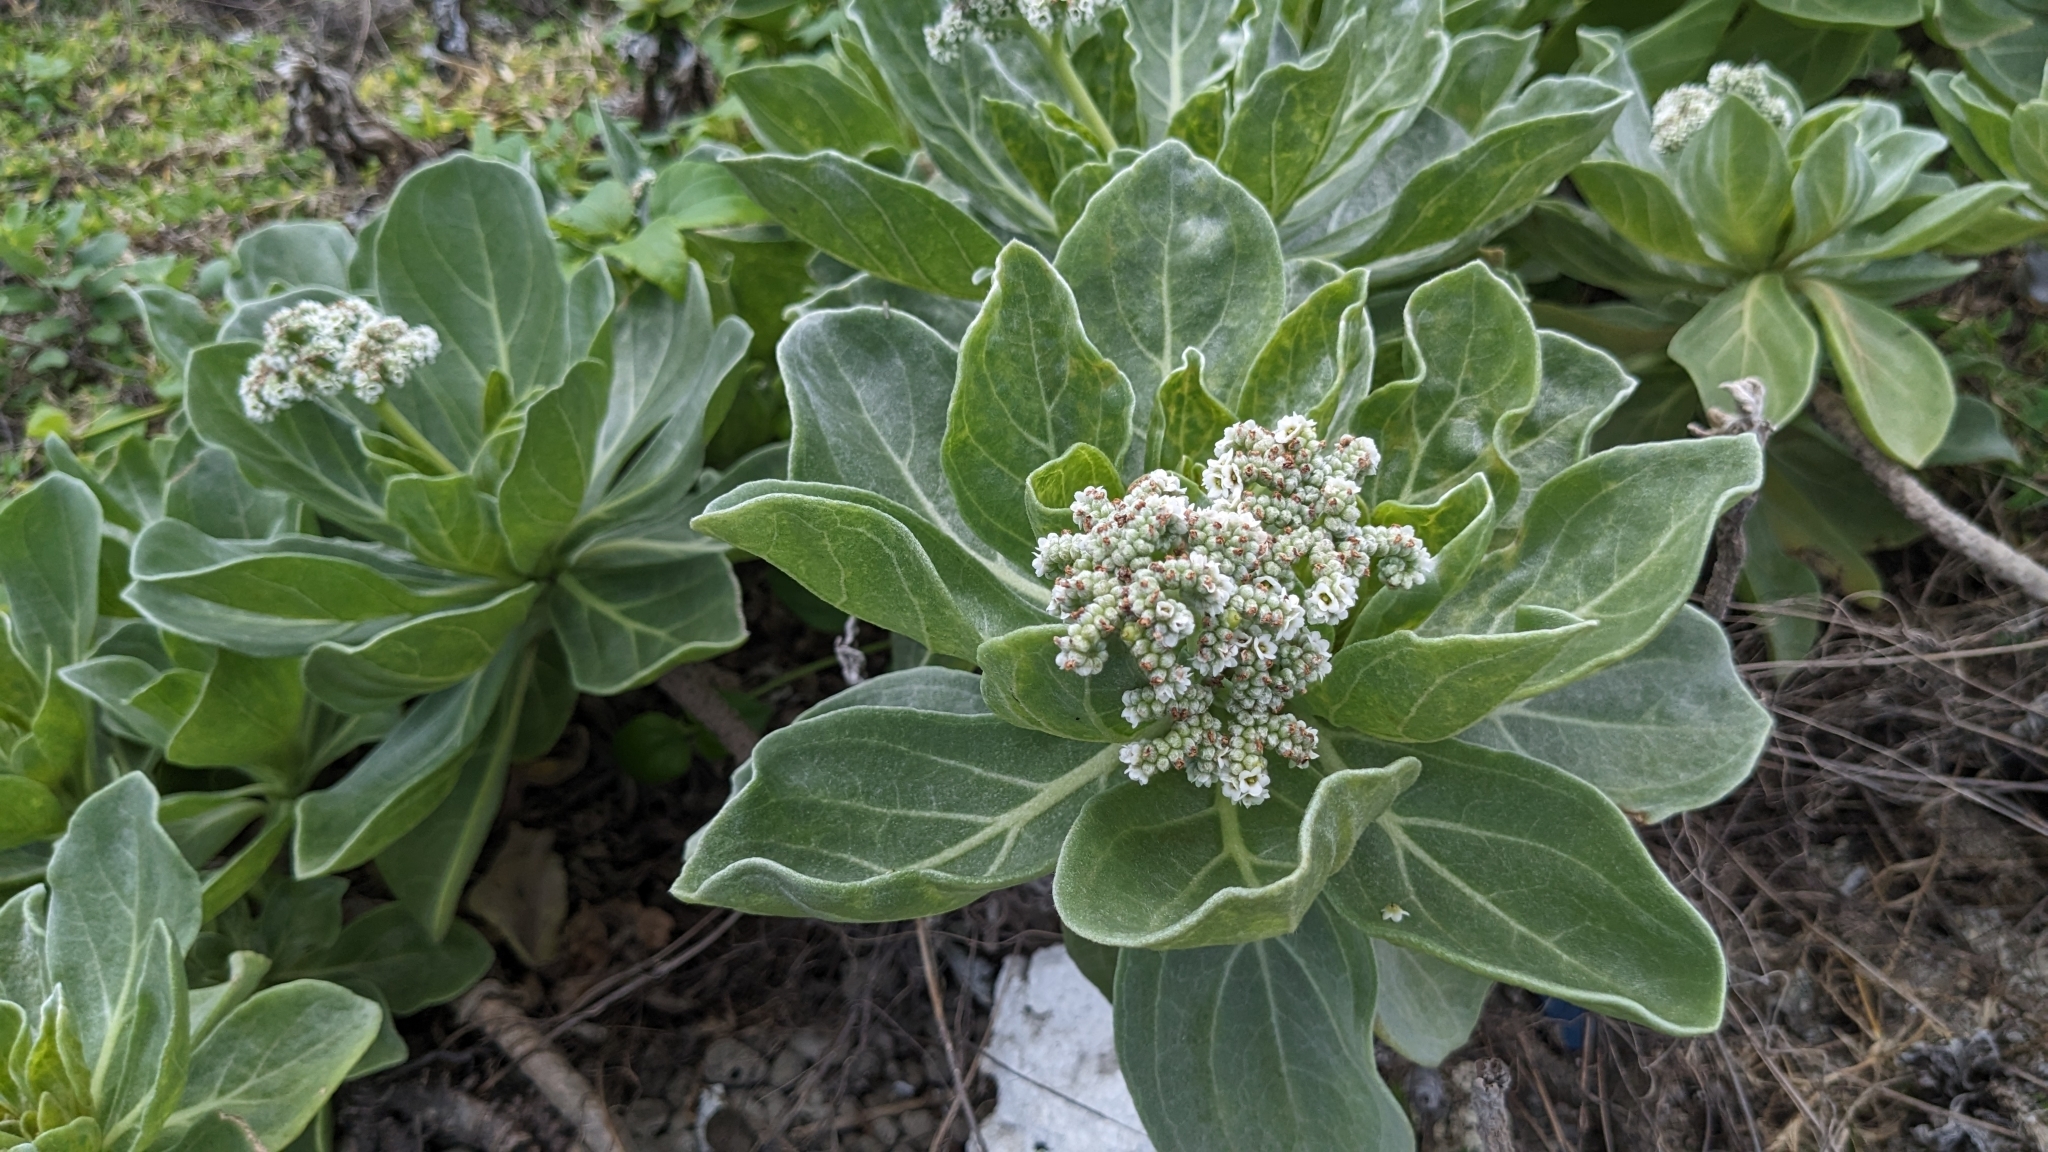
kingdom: Plantae
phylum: Tracheophyta
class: Magnoliopsida
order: Boraginales
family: Heliotropiaceae
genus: Heliotropium
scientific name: Heliotropium velutinum
